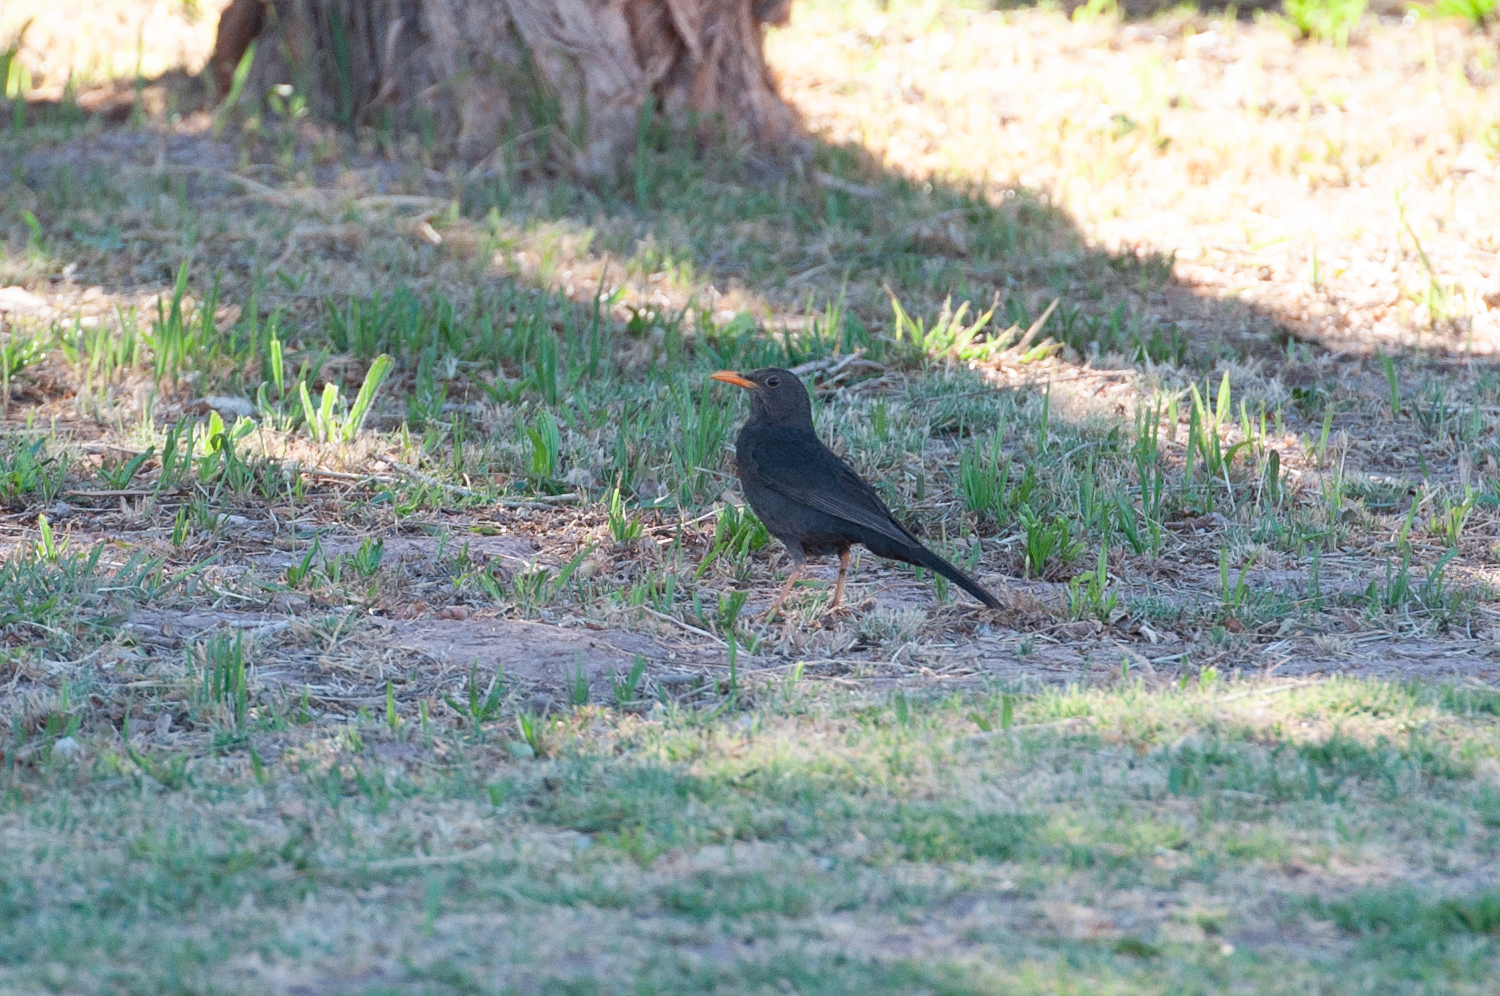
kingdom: Animalia
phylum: Chordata
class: Aves
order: Passeriformes
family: Turdidae
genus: Turdus
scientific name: Turdus chiguanco
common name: Chiguanco thrush
